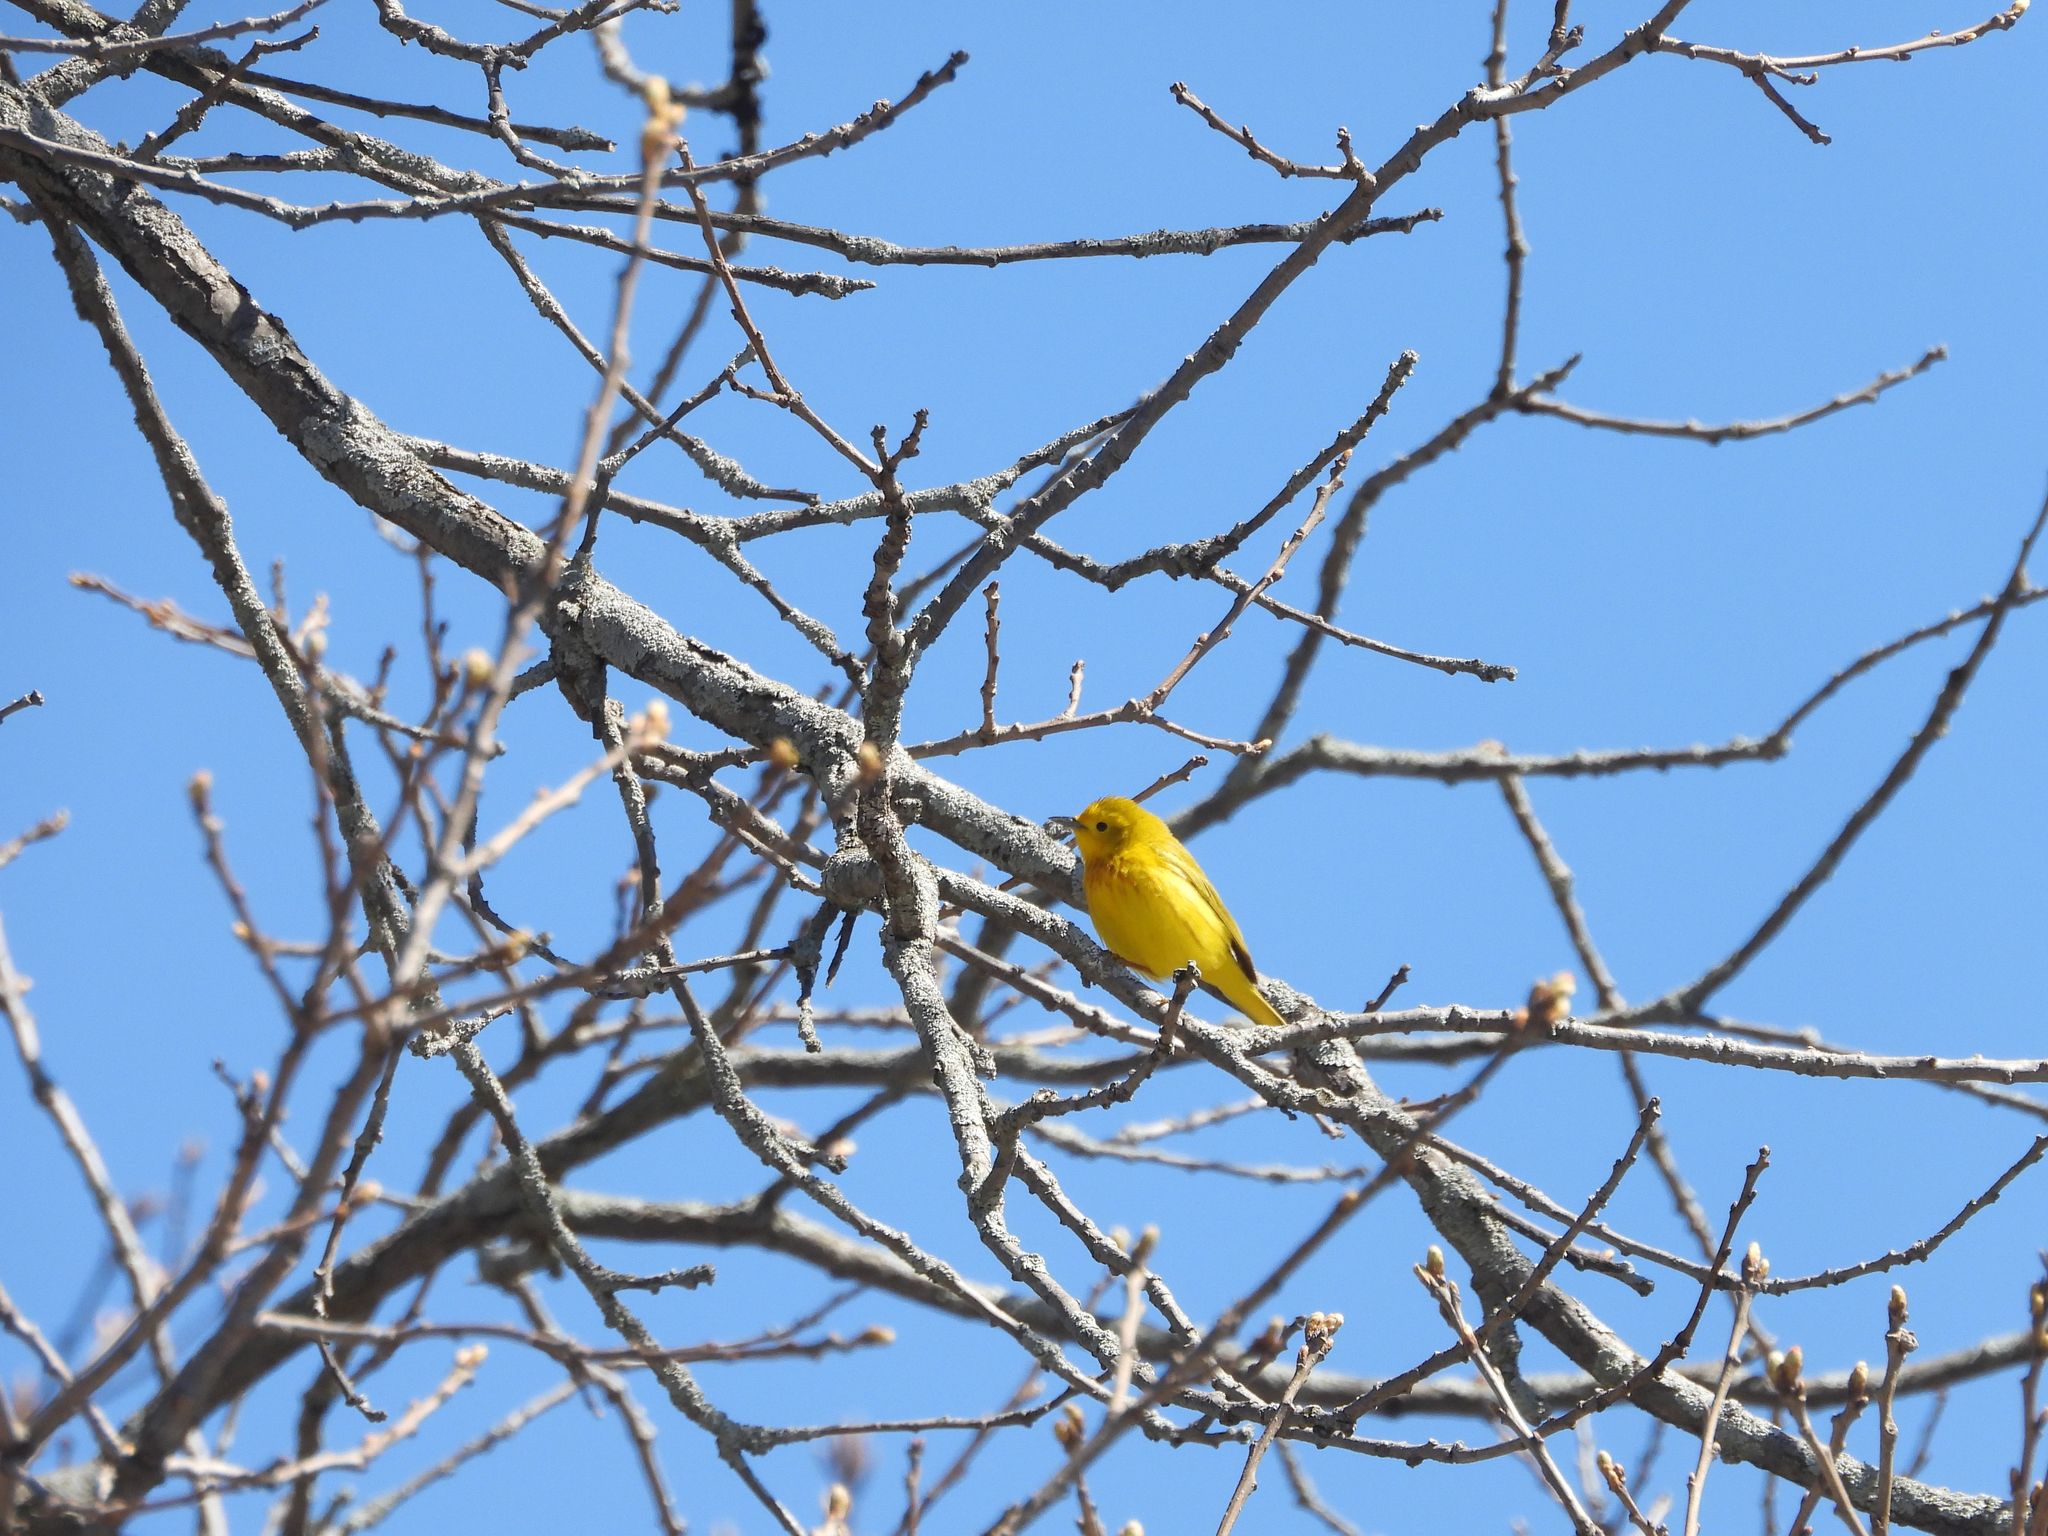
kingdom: Animalia
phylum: Chordata
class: Aves
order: Passeriformes
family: Parulidae
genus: Setophaga
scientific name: Setophaga petechia
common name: Yellow warbler
